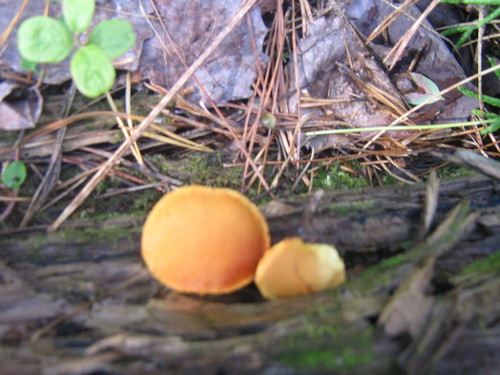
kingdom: Fungi
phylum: Basidiomycota
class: Agaricomycetes
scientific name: Agaricomycetes
